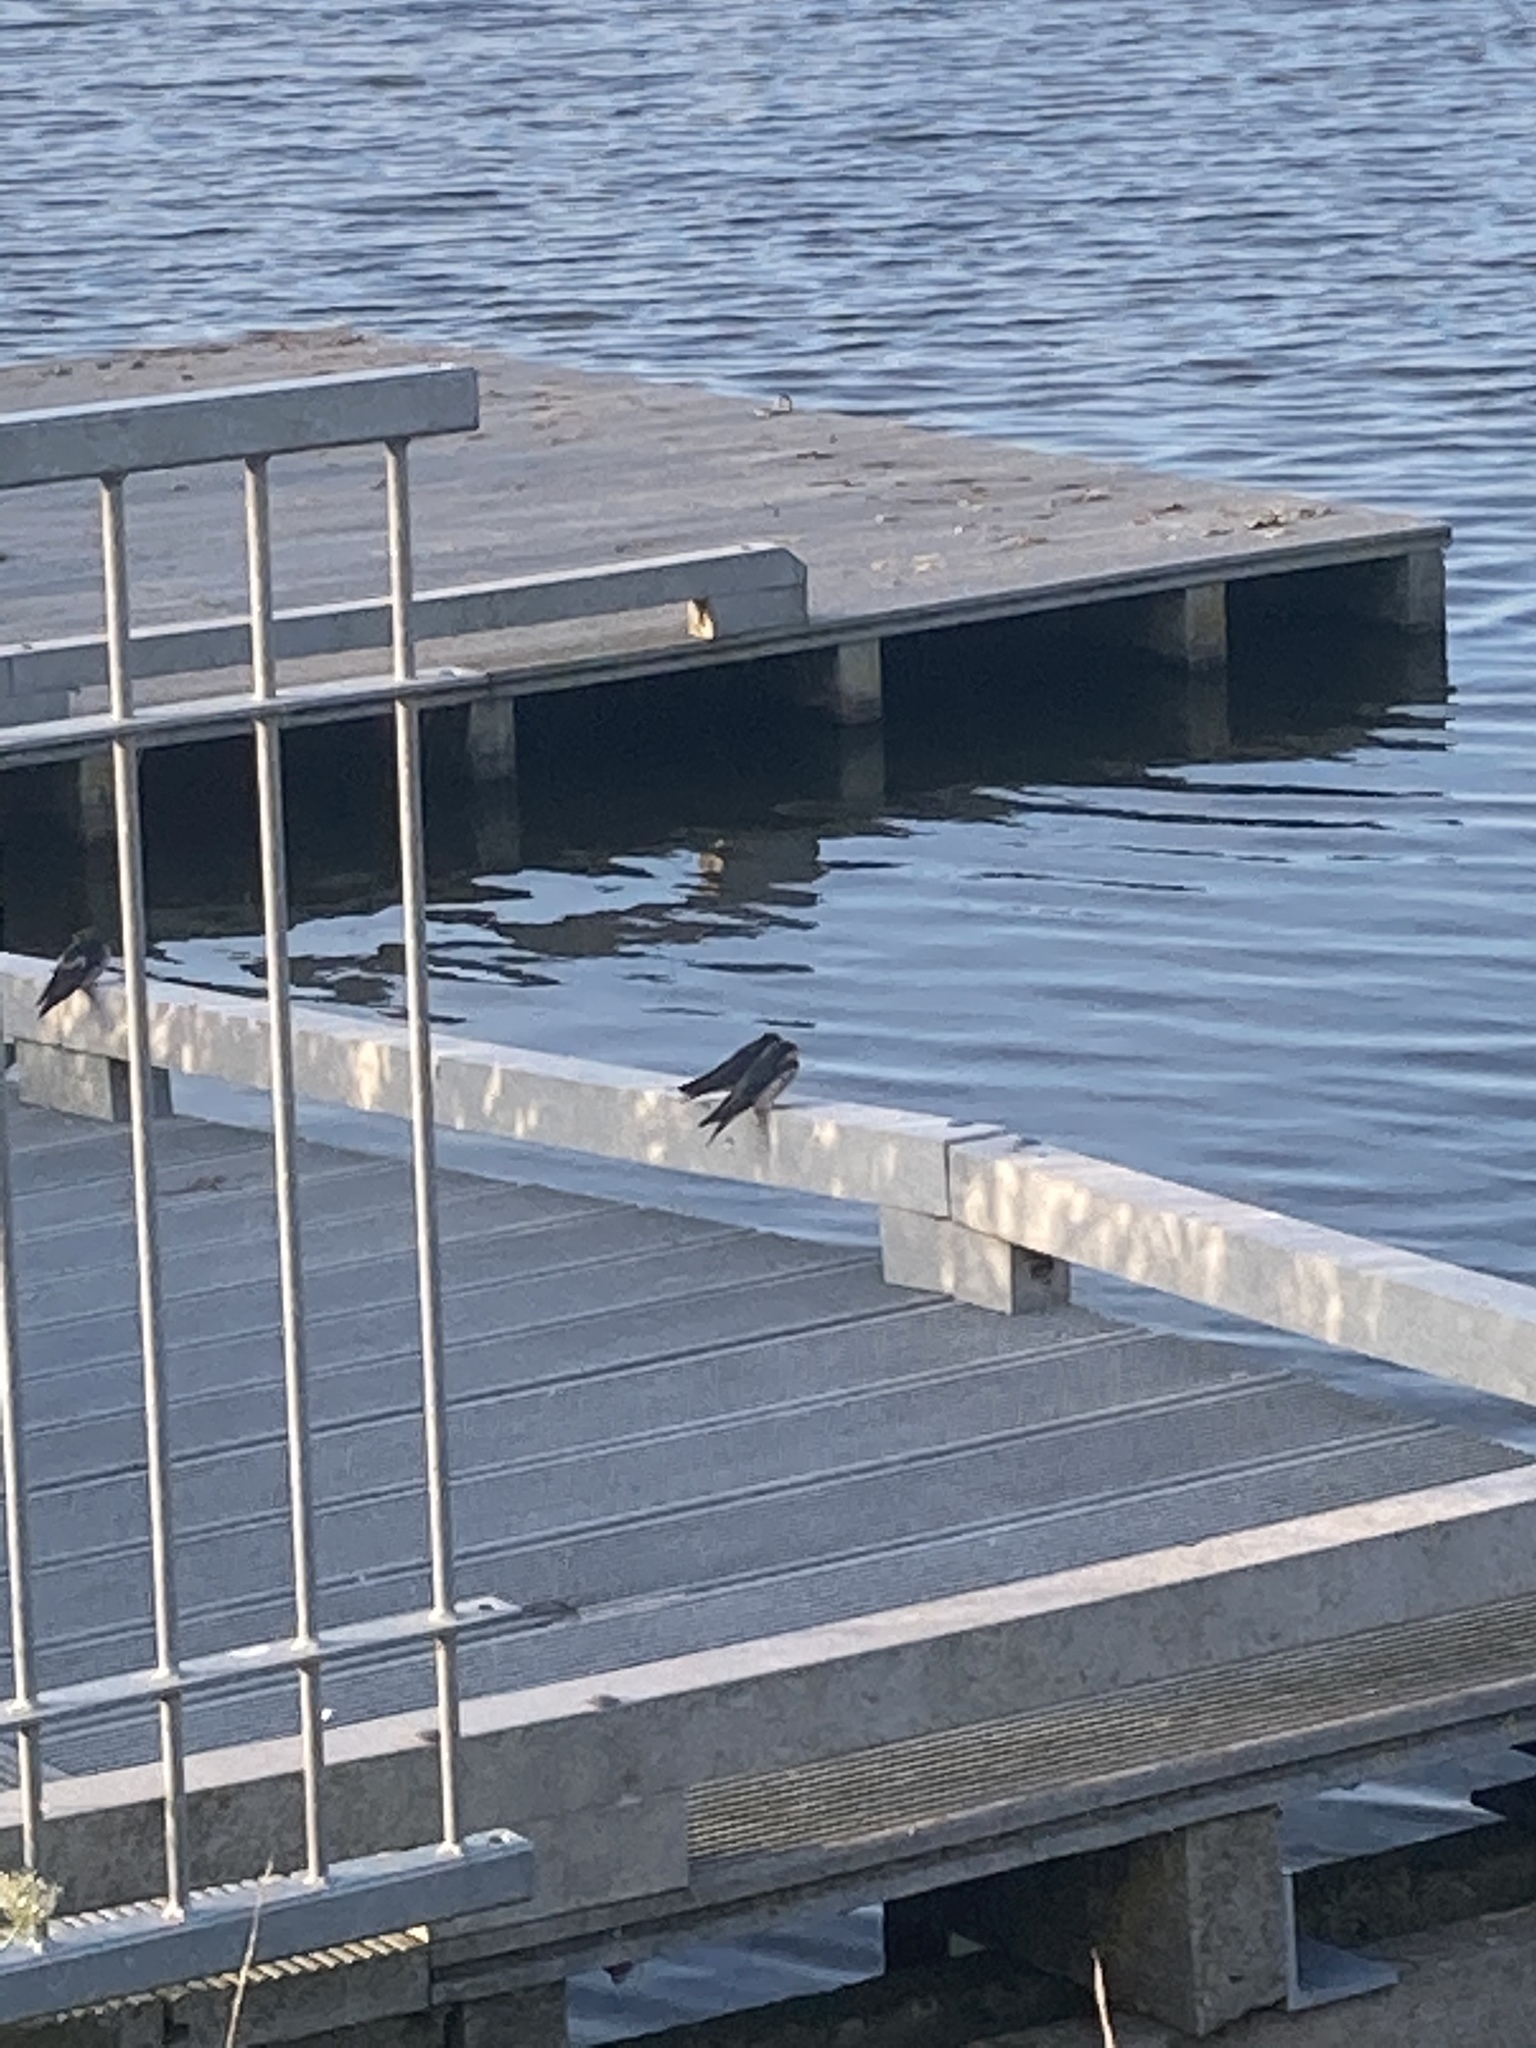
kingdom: Animalia
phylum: Chordata
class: Aves
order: Passeriformes
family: Hirundinidae
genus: Hirundo
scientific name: Hirundo rustica
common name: Barn swallow
